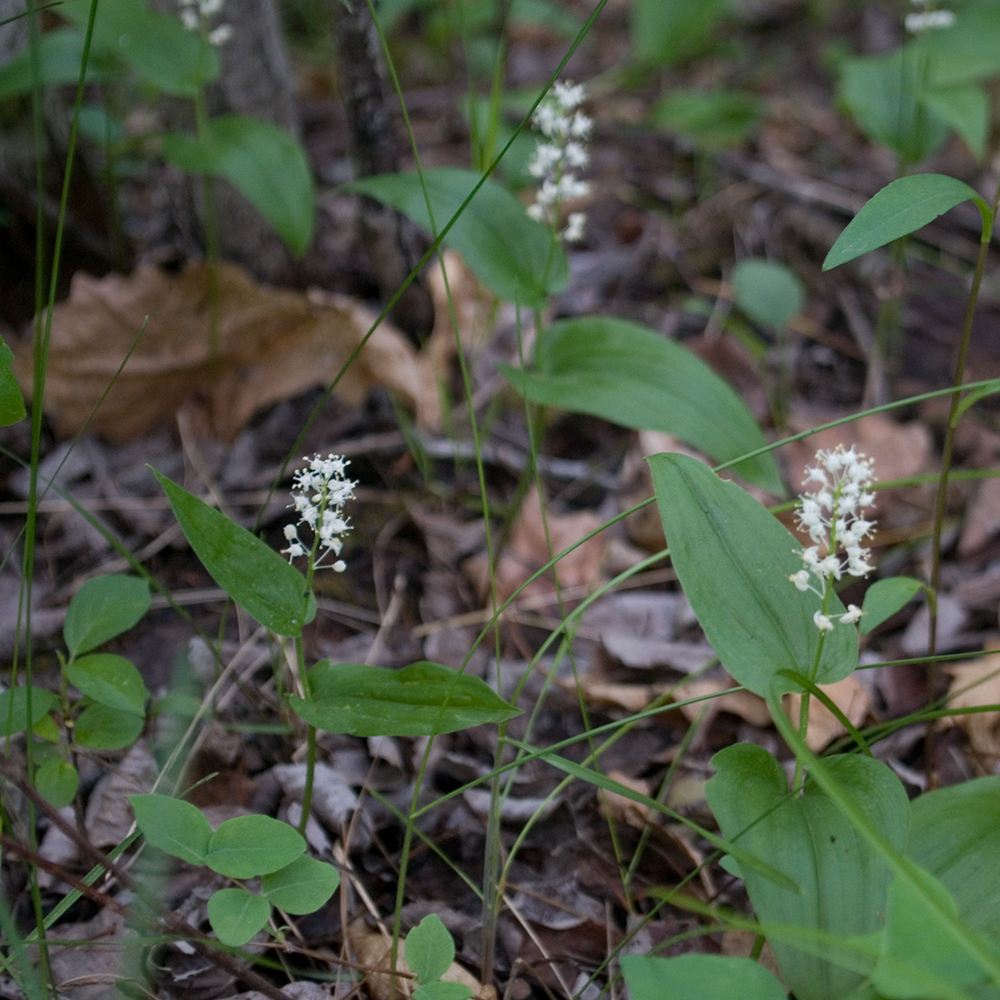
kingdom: Plantae
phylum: Tracheophyta
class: Liliopsida
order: Asparagales
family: Asparagaceae
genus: Maianthemum
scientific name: Maianthemum canadense
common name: False lily-of-the-valley
